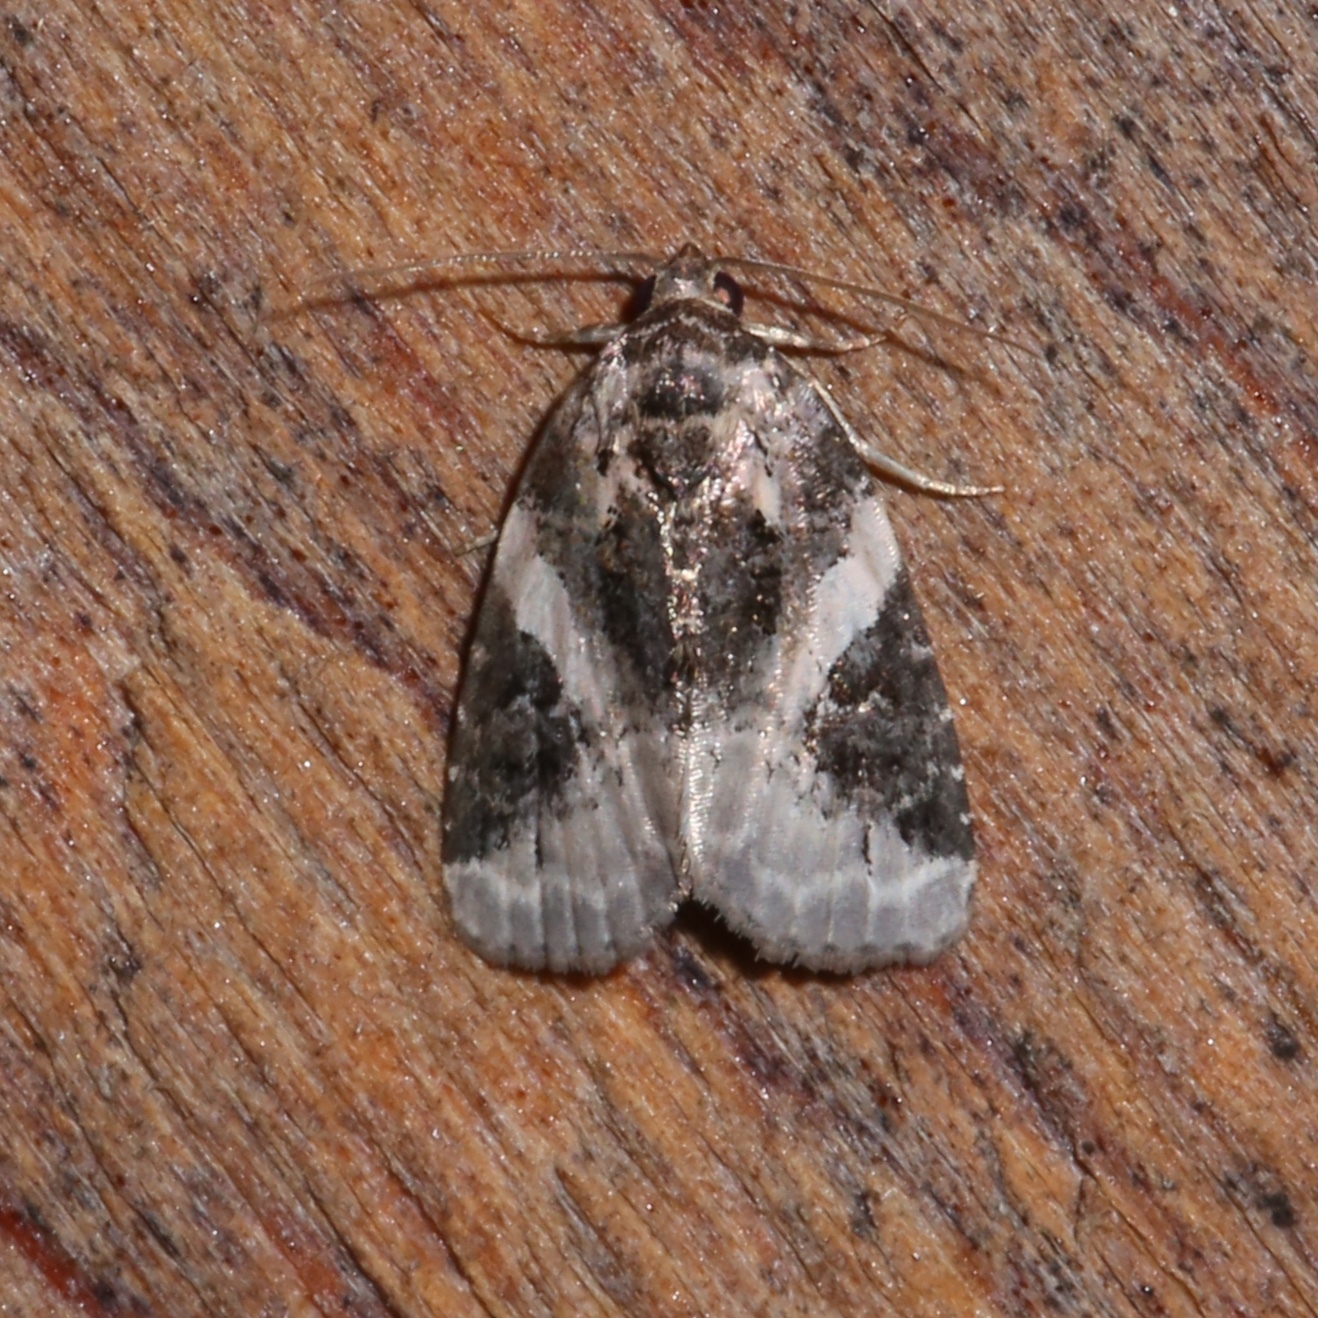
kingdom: Animalia
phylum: Arthropoda
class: Insecta
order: Lepidoptera
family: Noctuidae
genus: Pseudeustrotia
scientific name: Pseudeustrotia carneola
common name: Pink-barred lithacodia moth
